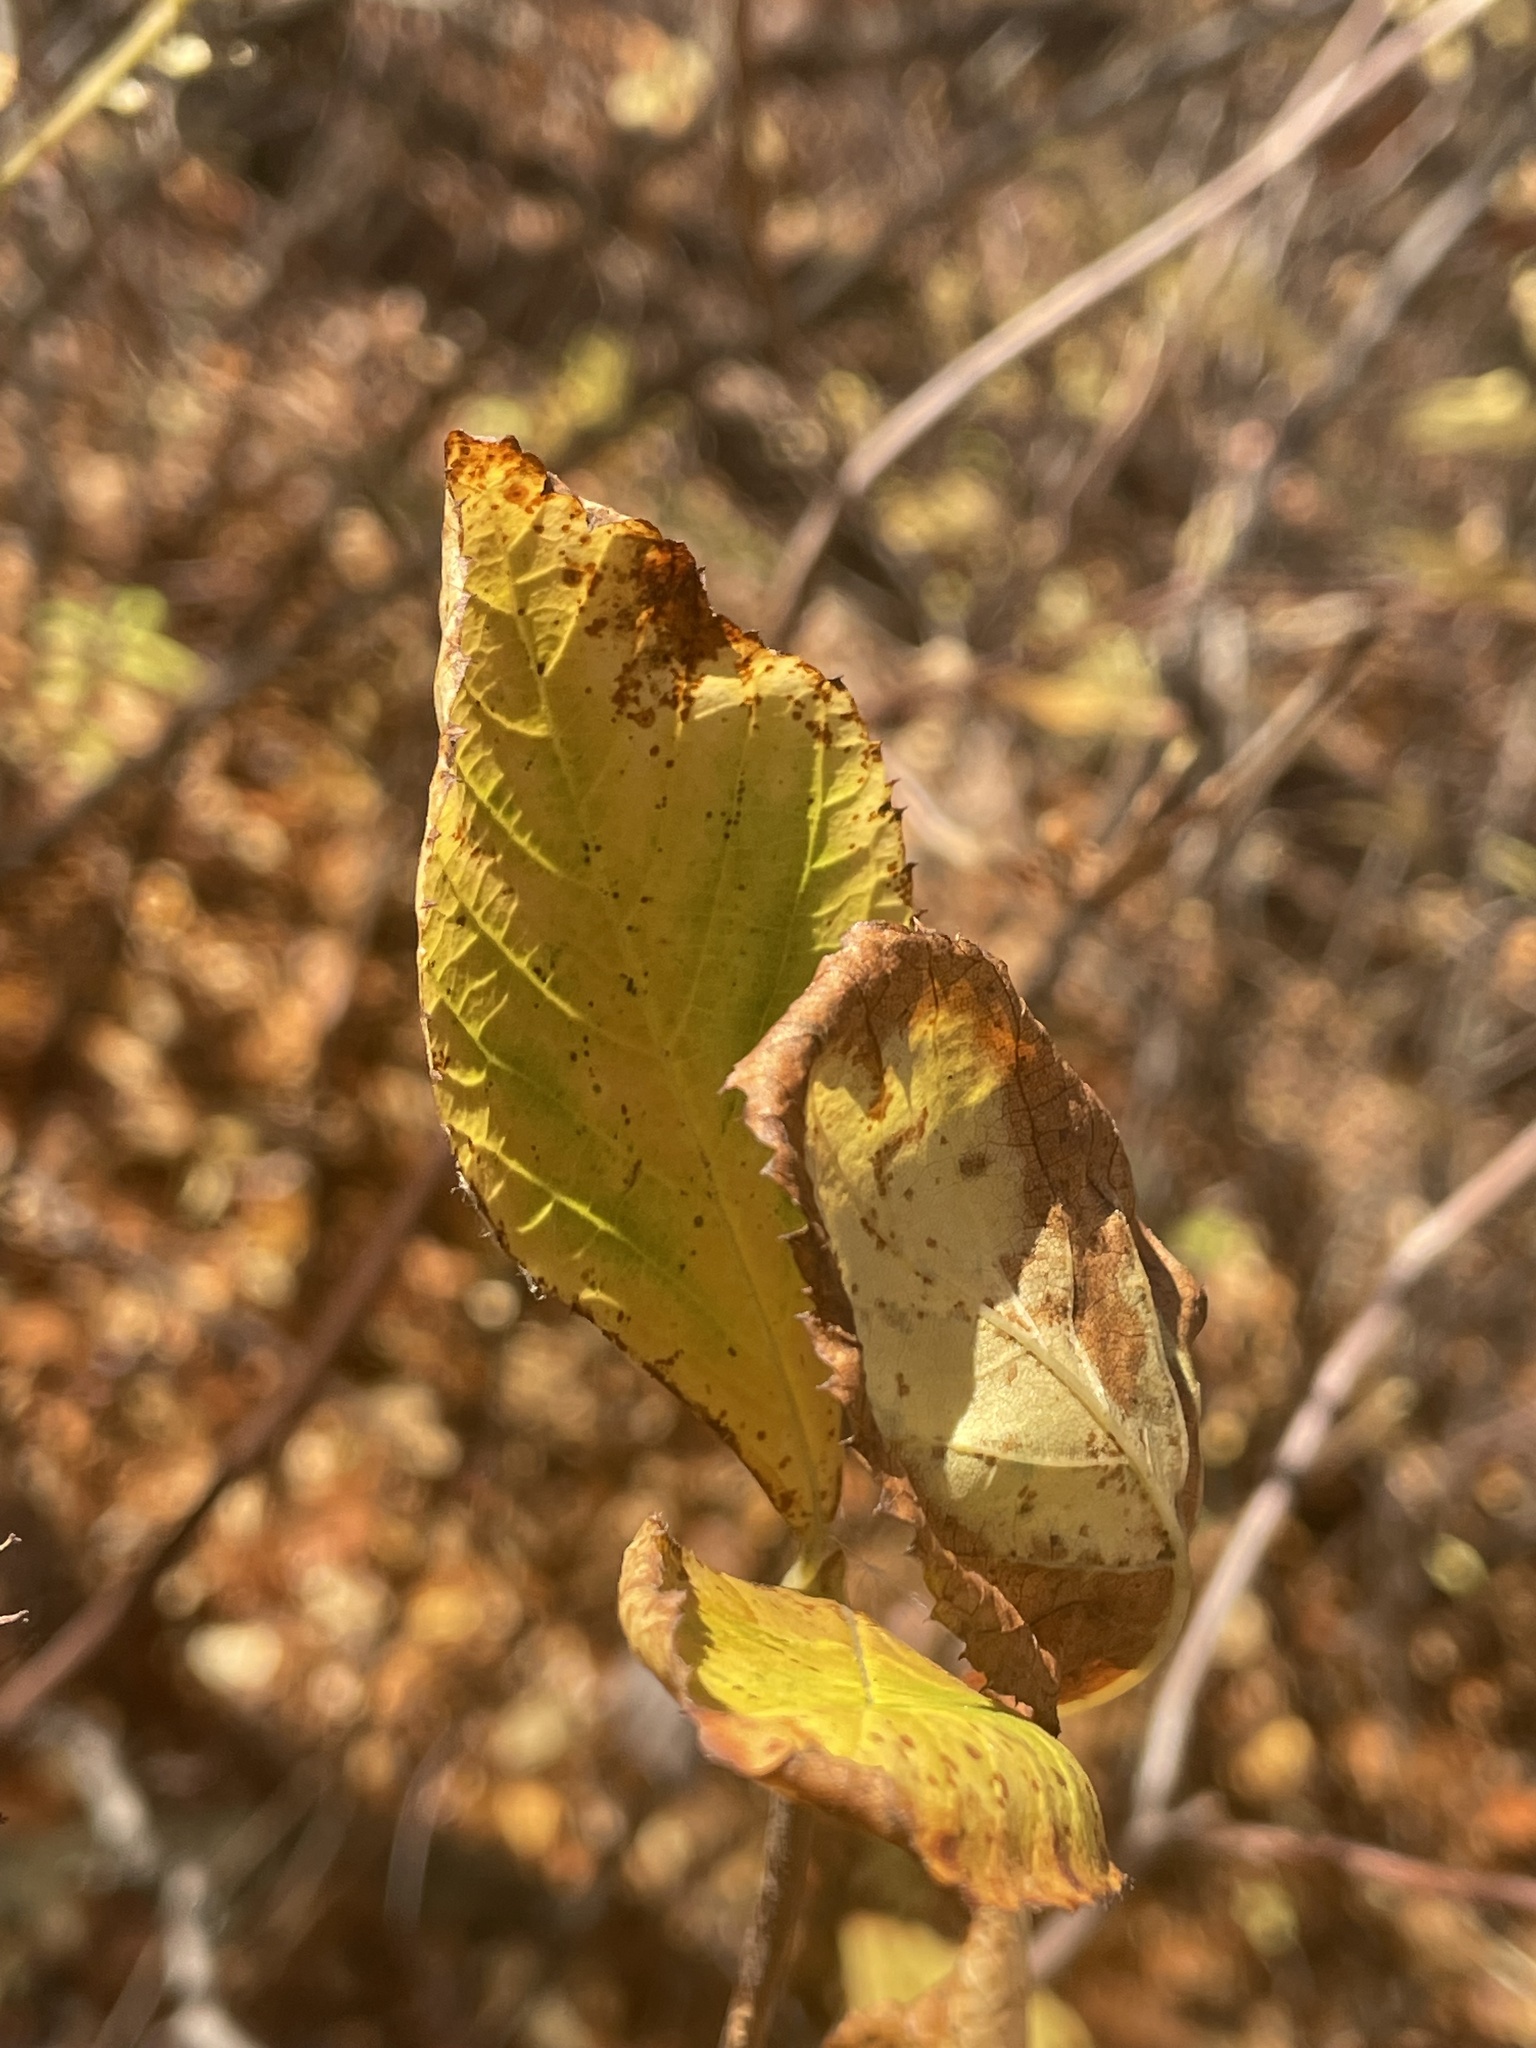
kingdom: Plantae
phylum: Tracheophyta
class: Magnoliopsida
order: Ericales
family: Clethraceae
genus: Clethra
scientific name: Clethra alnifolia
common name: Sweet pepperbush
